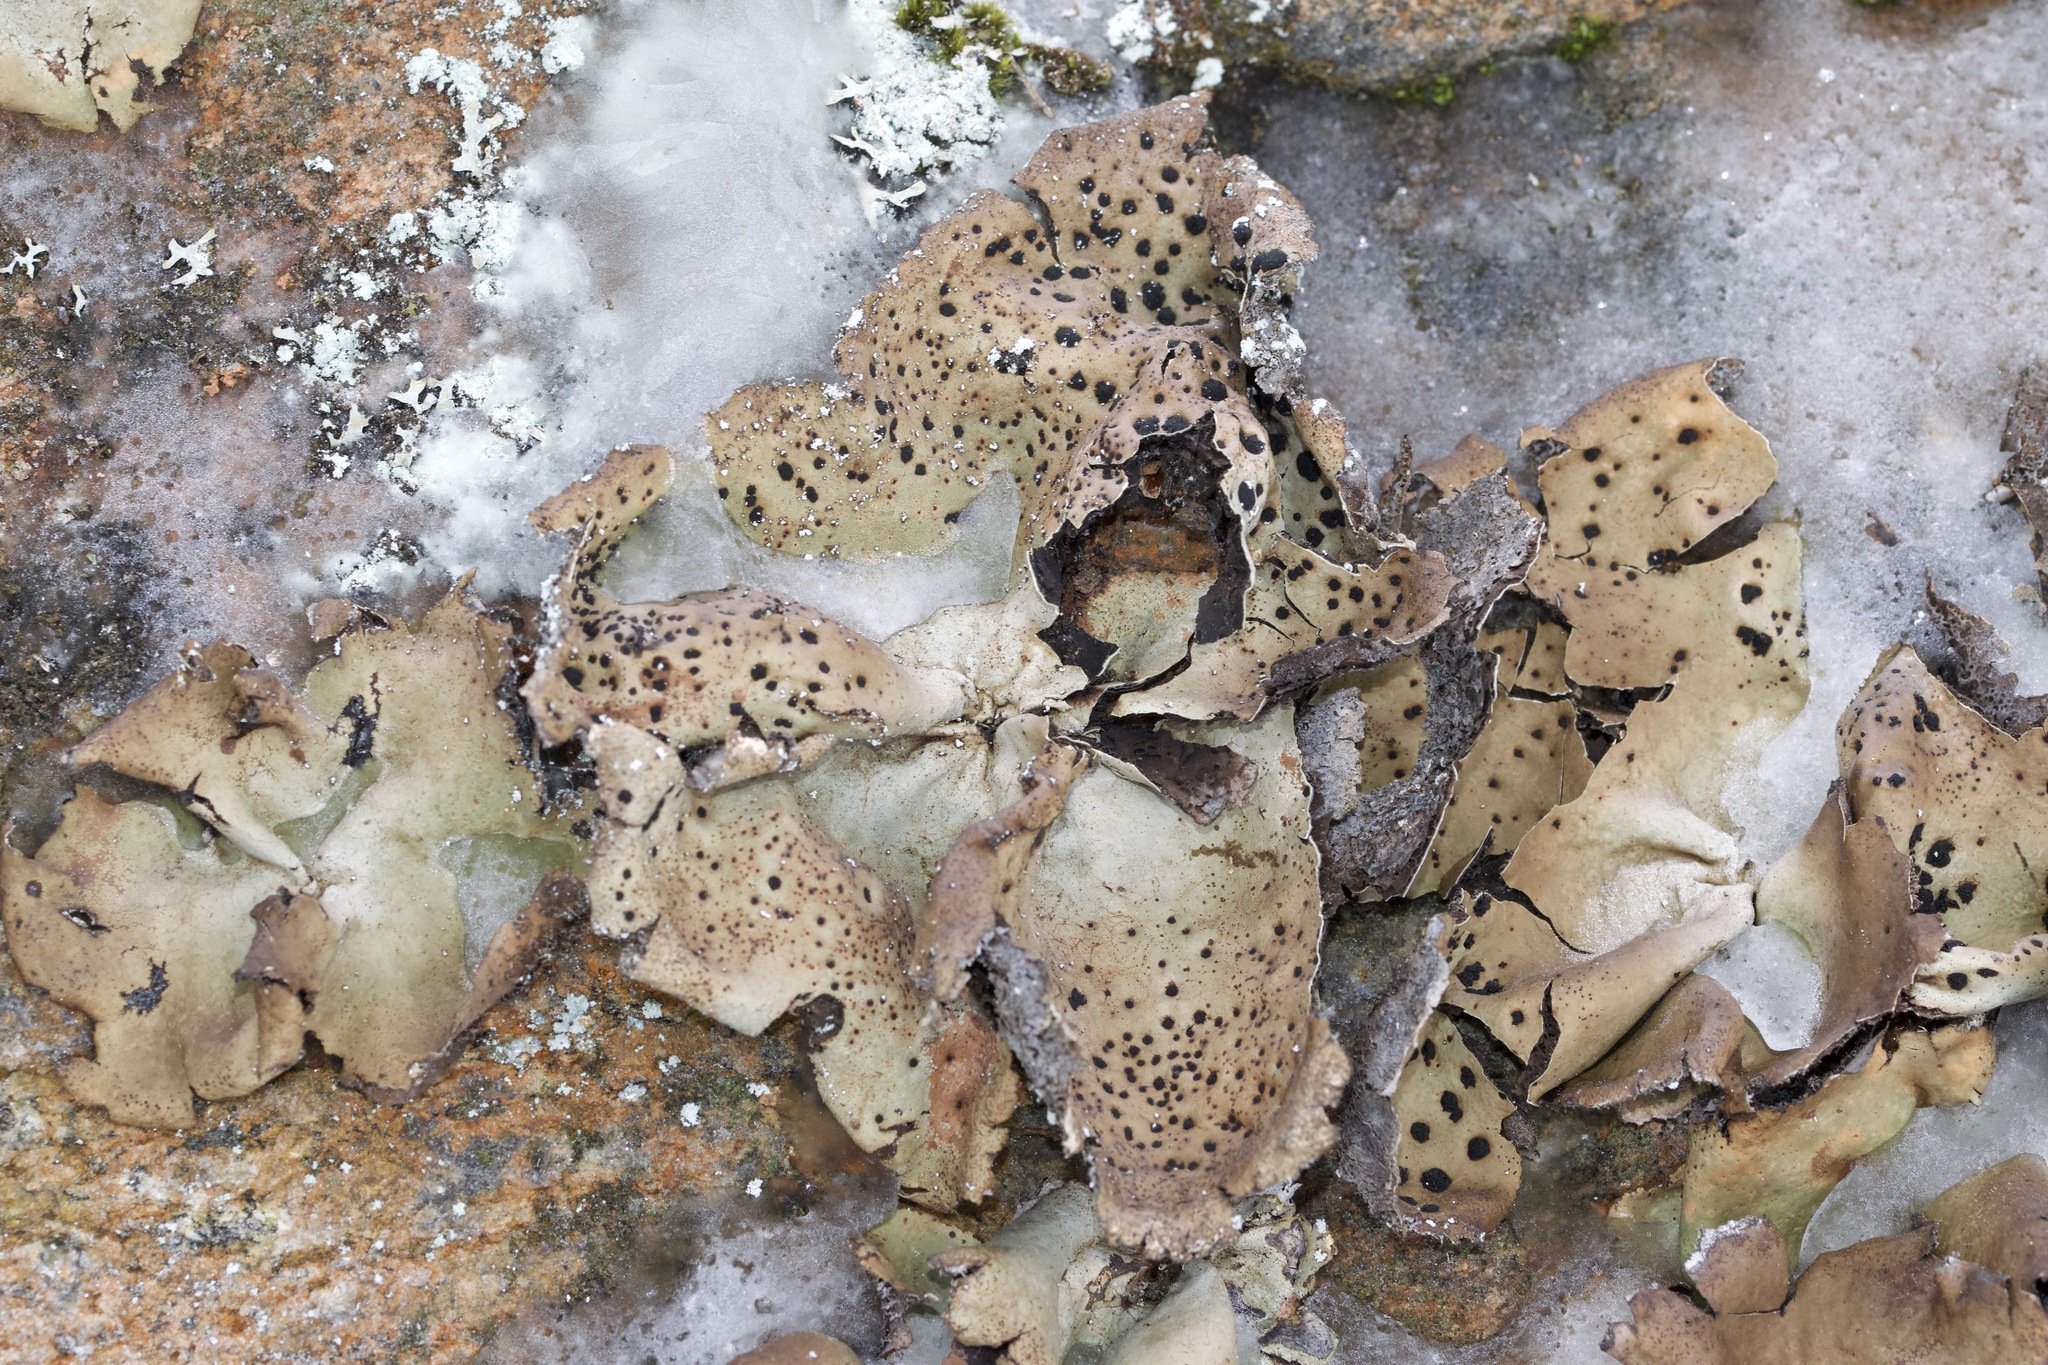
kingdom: Fungi
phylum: Ascomycota
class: Lecanoromycetes
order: Umbilicariales
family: Umbilicariaceae
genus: Umbilicaria
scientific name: Umbilicaria muhlenbergii
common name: Lesser rocktripe
